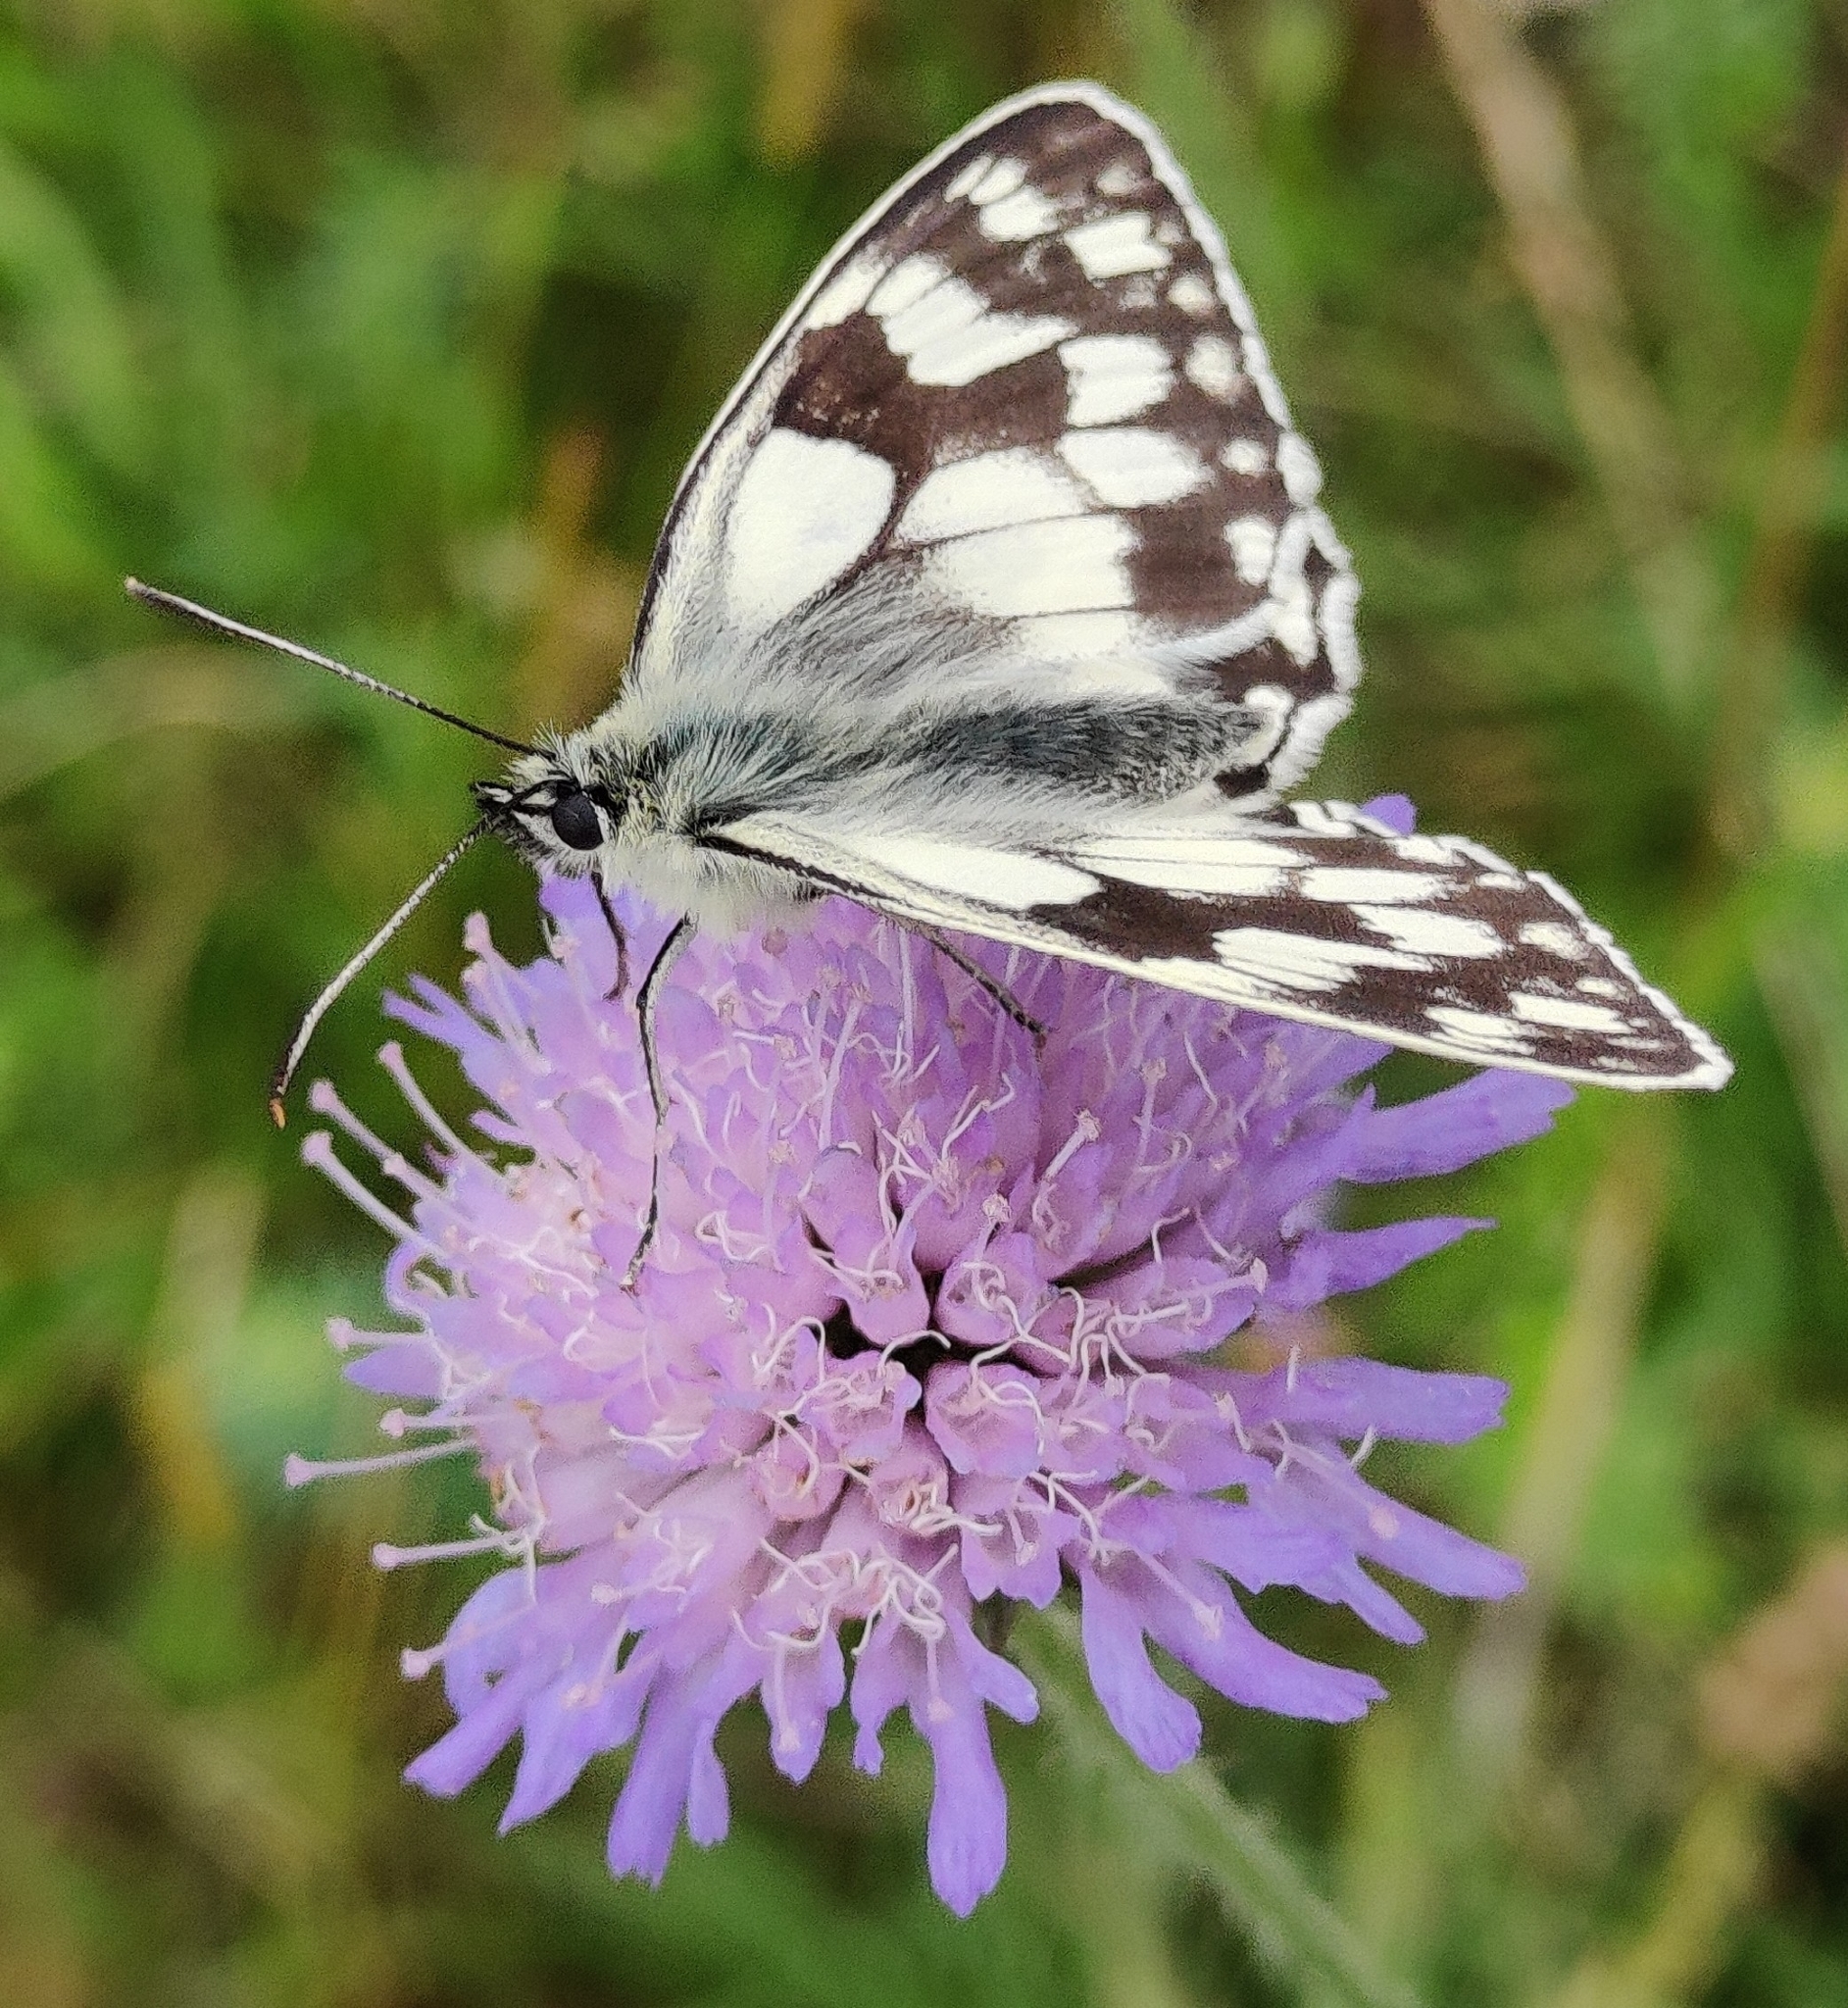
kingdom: Animalia
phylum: Arthropoda
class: Insecta
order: Lepidoptera
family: Nymphalidae
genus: Melanargia
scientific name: Melanargia galathea
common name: Marbled white
